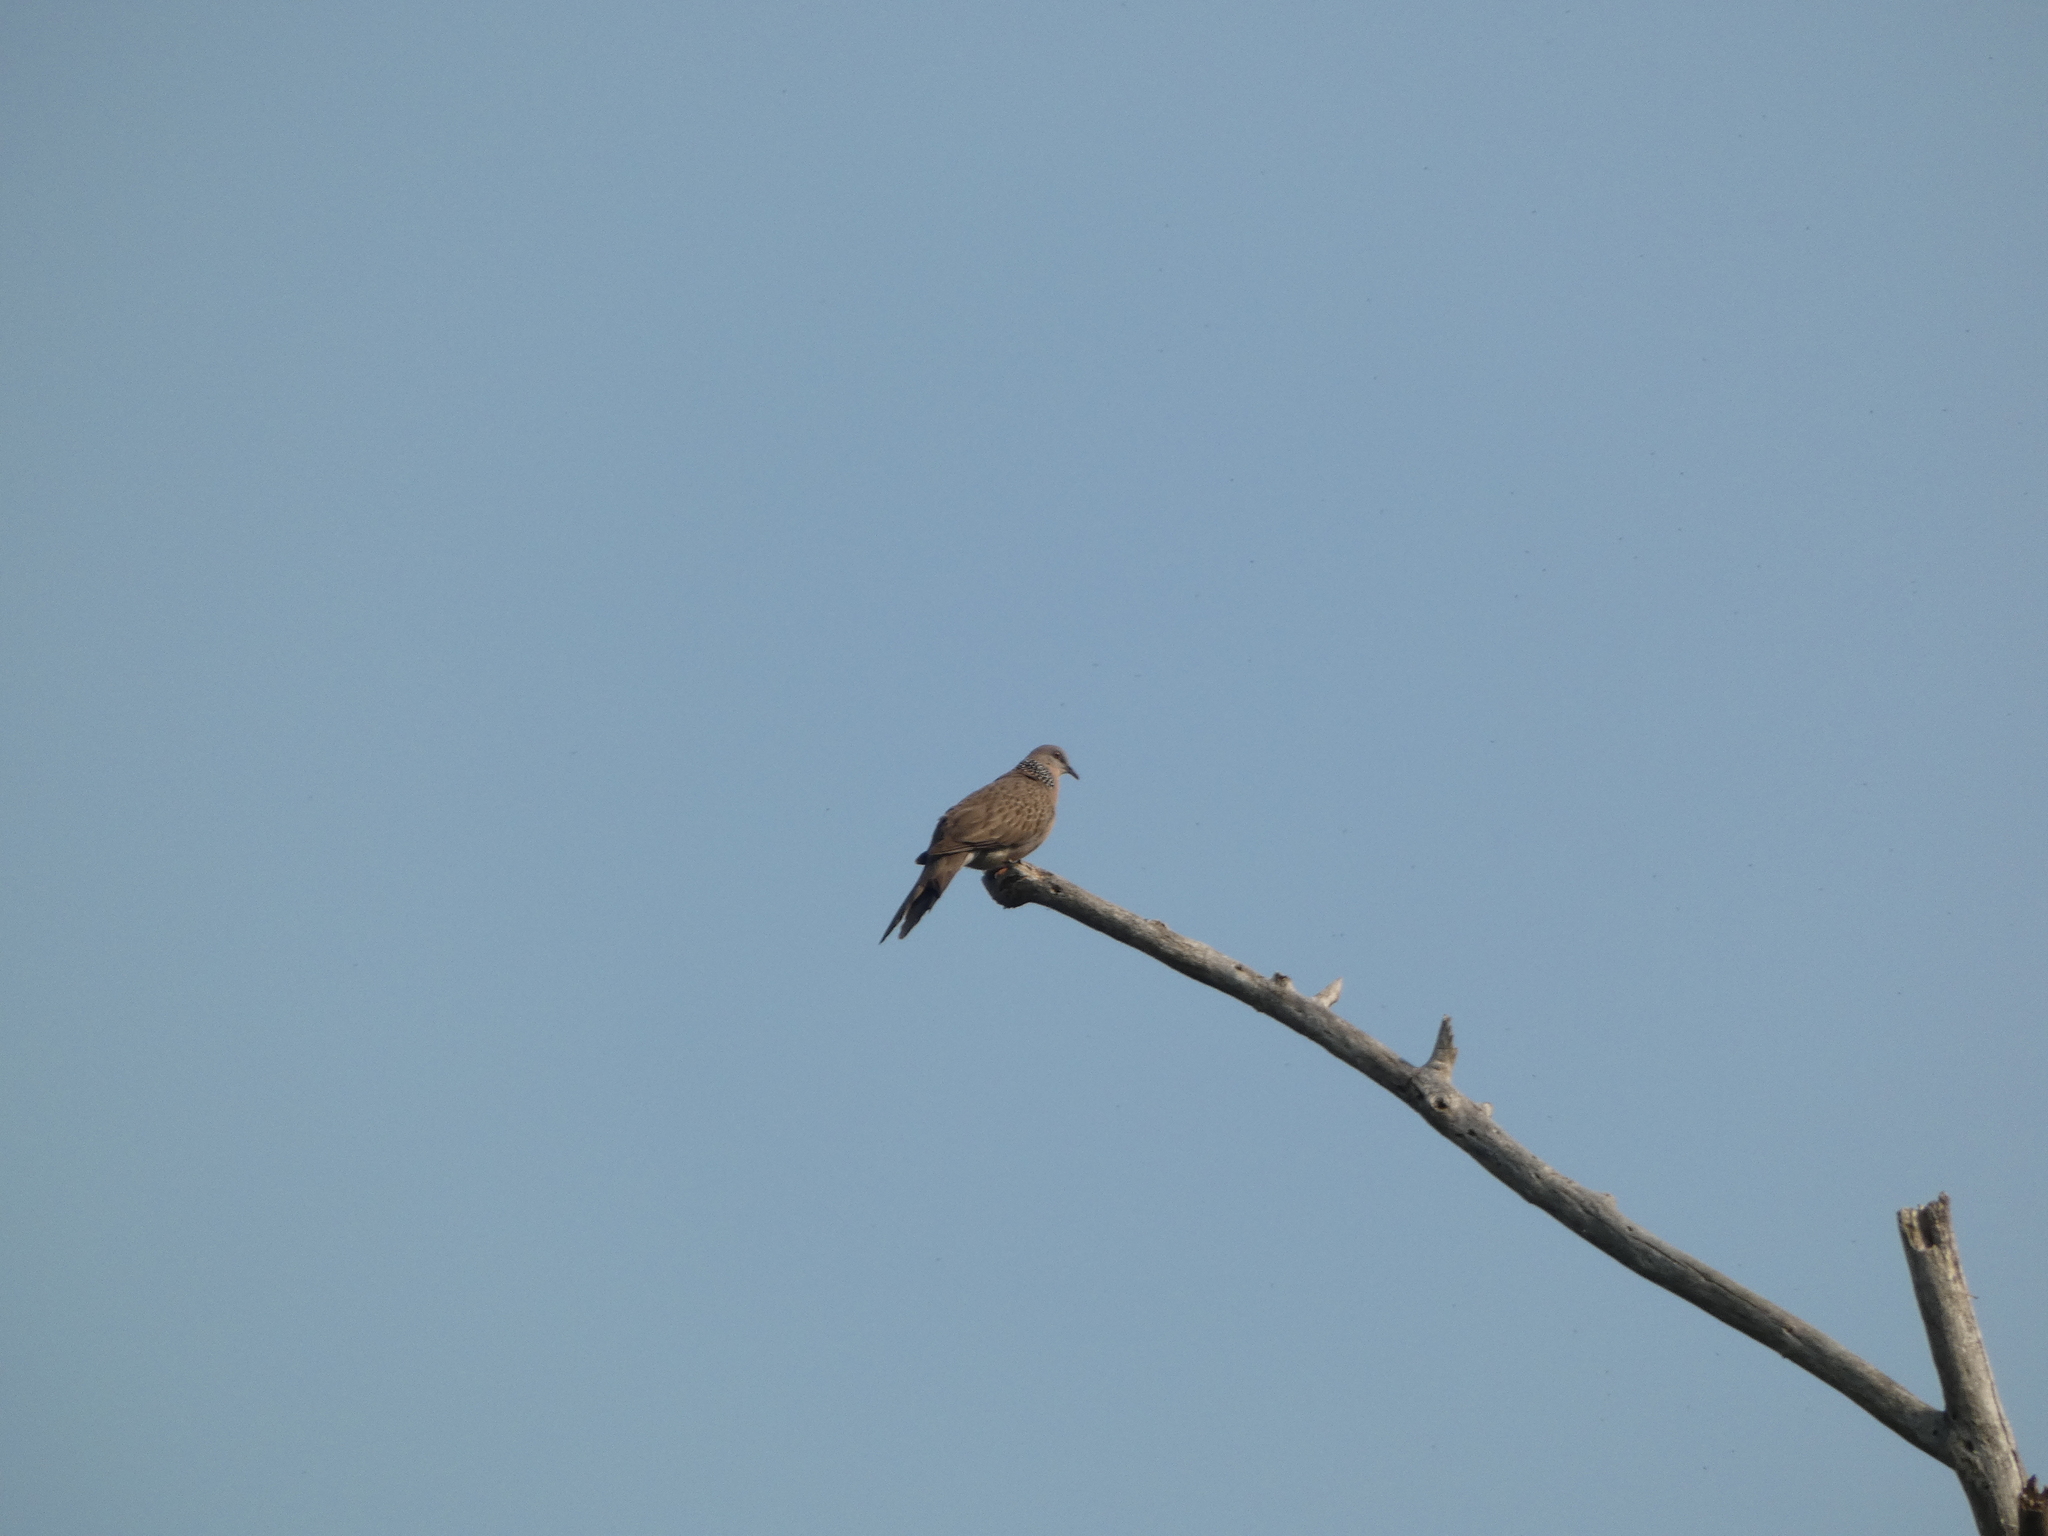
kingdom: Animalia
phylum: Chordata
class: Aves
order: Columbiformes
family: Columbidae
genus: Spilopelia
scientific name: Spilopelia chinensis
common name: Spotted dove
